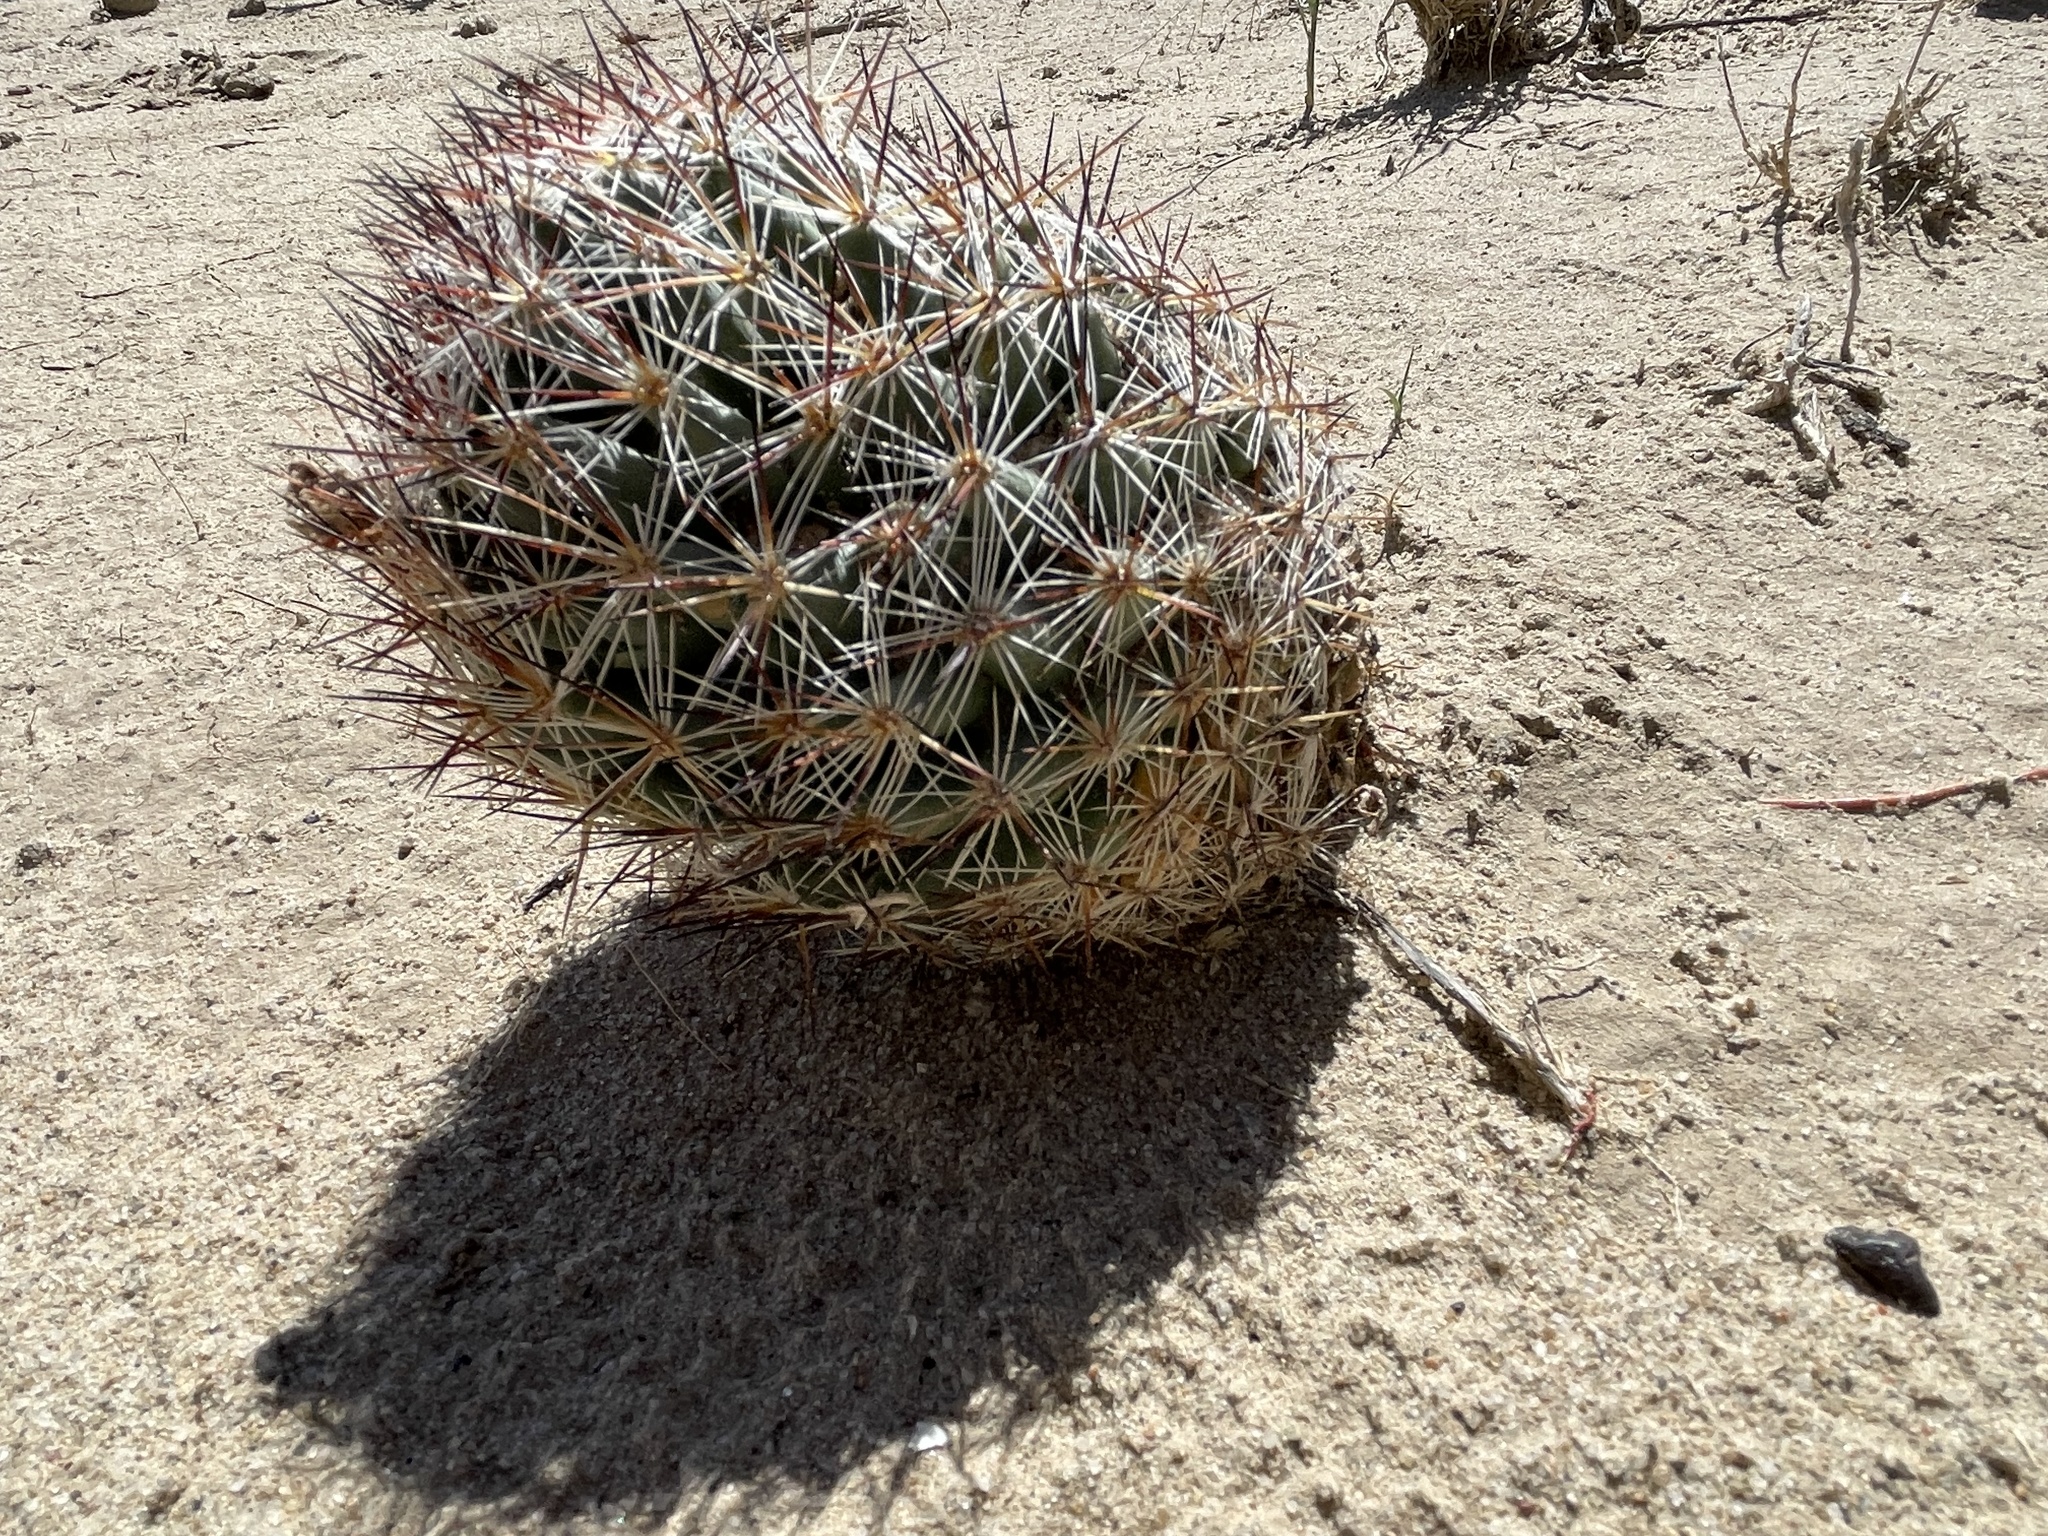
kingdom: Plantae
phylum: Tracheophyta
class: Magnoliopsida
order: Caryophyllales
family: Cactaceae
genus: Pelecyphora
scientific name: Pelecyphora vivipara
